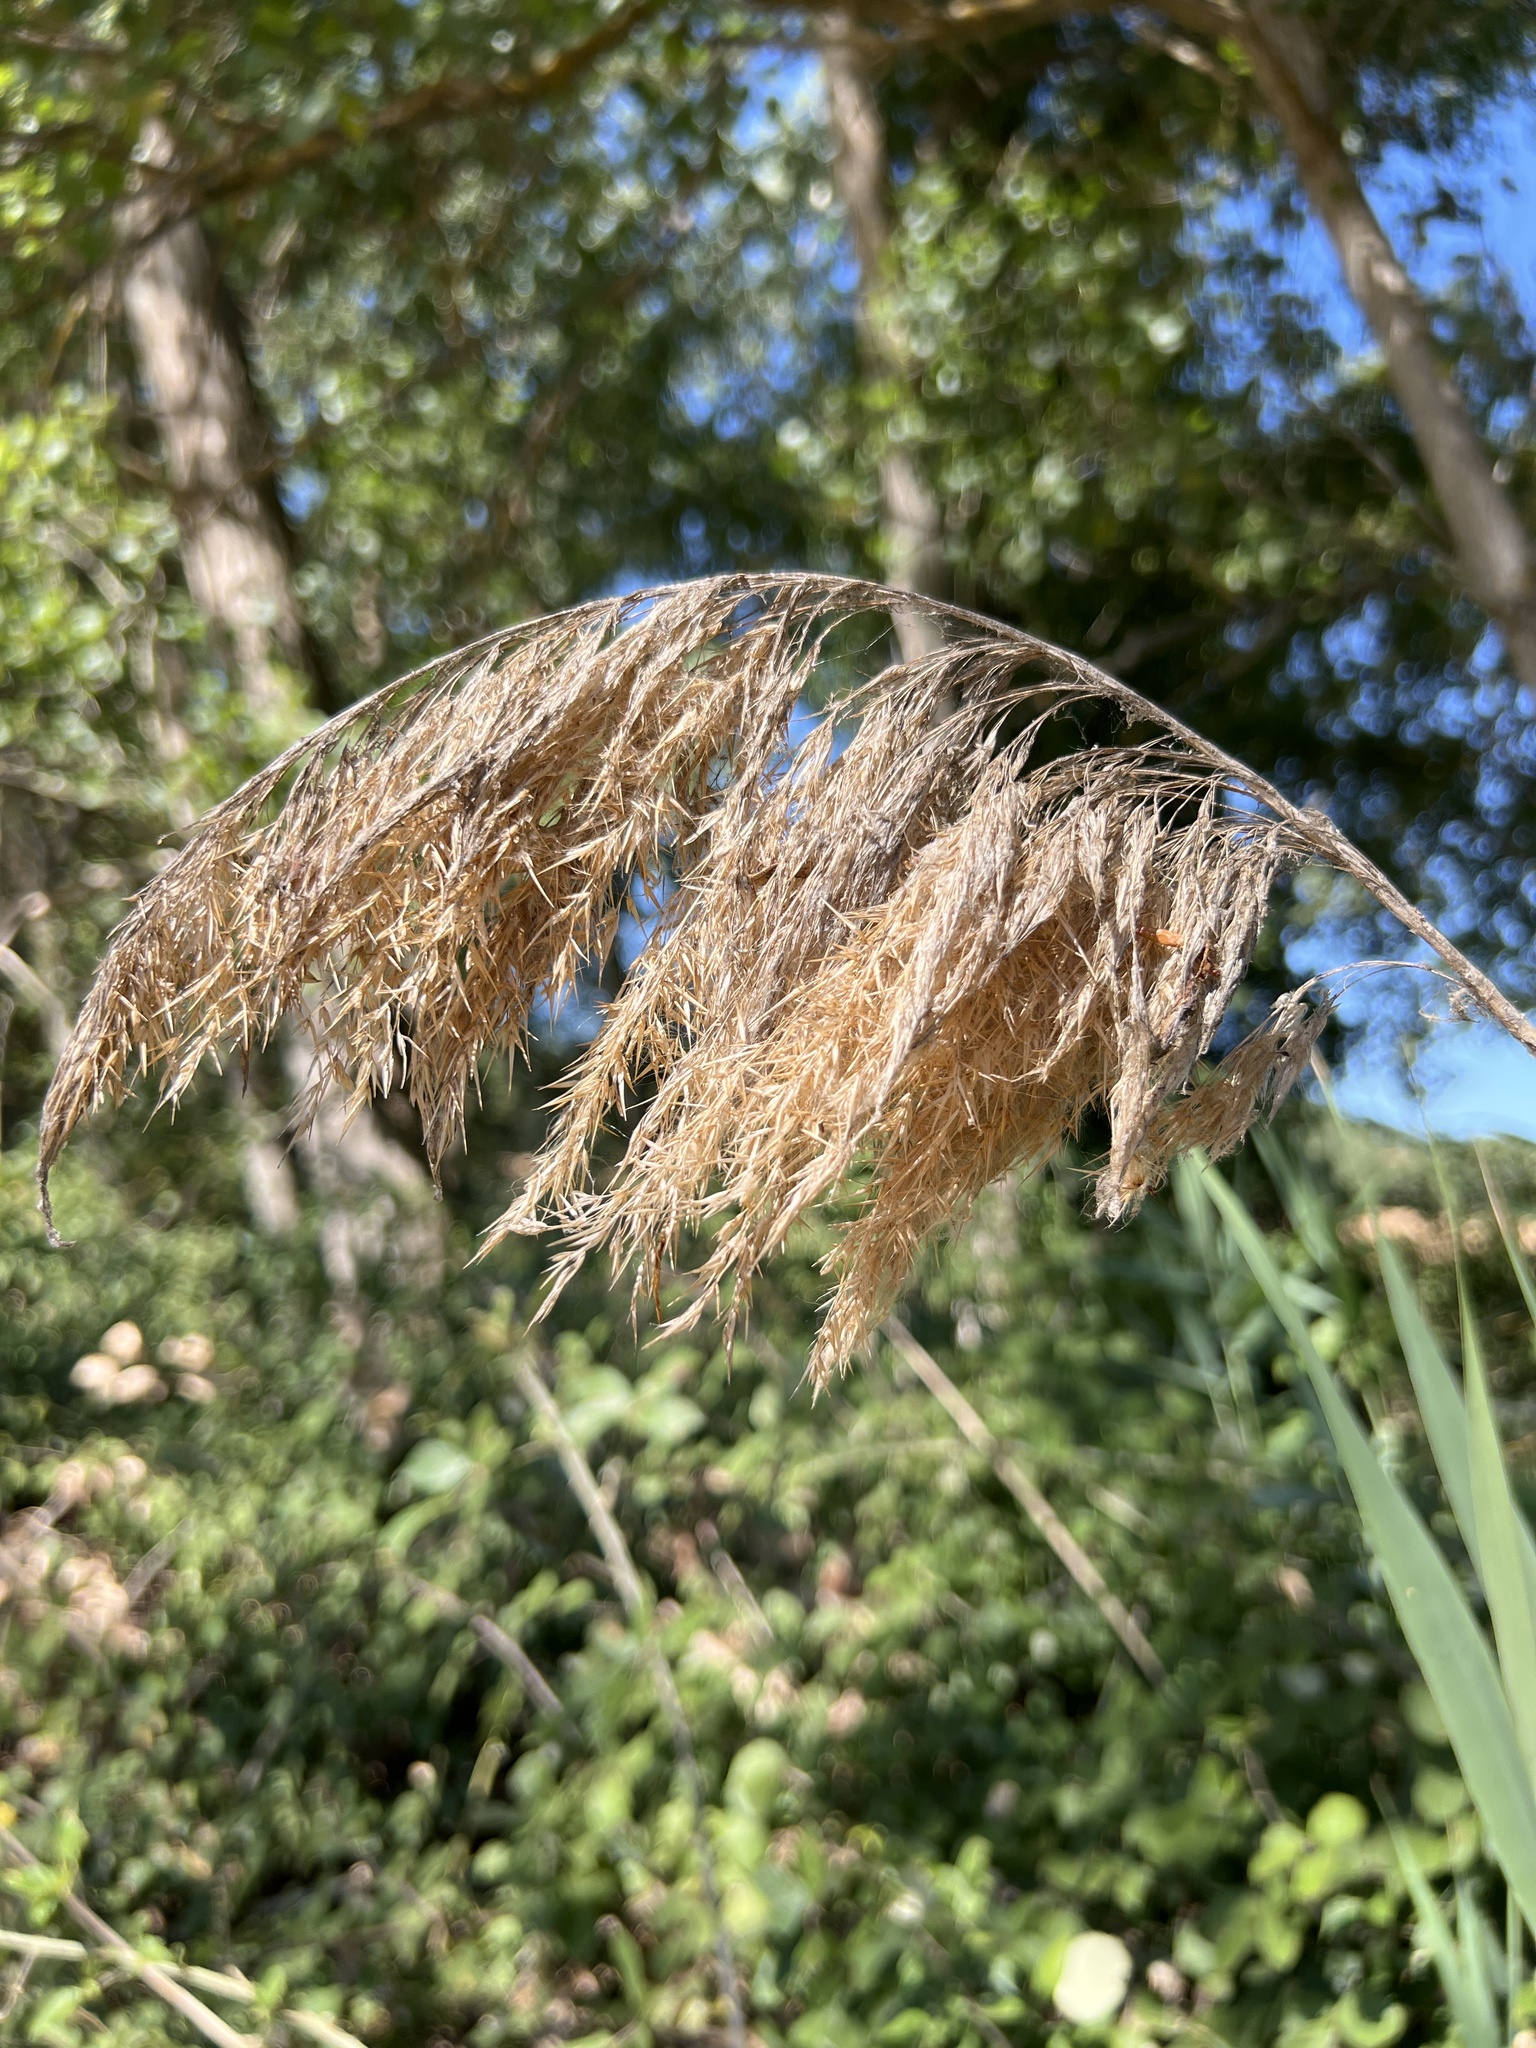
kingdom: Plantae
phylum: Tracheophyta
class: Liliopsida
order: Poales
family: Poaceae
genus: Phragmites
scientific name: Phragmites australis
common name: Common reed
